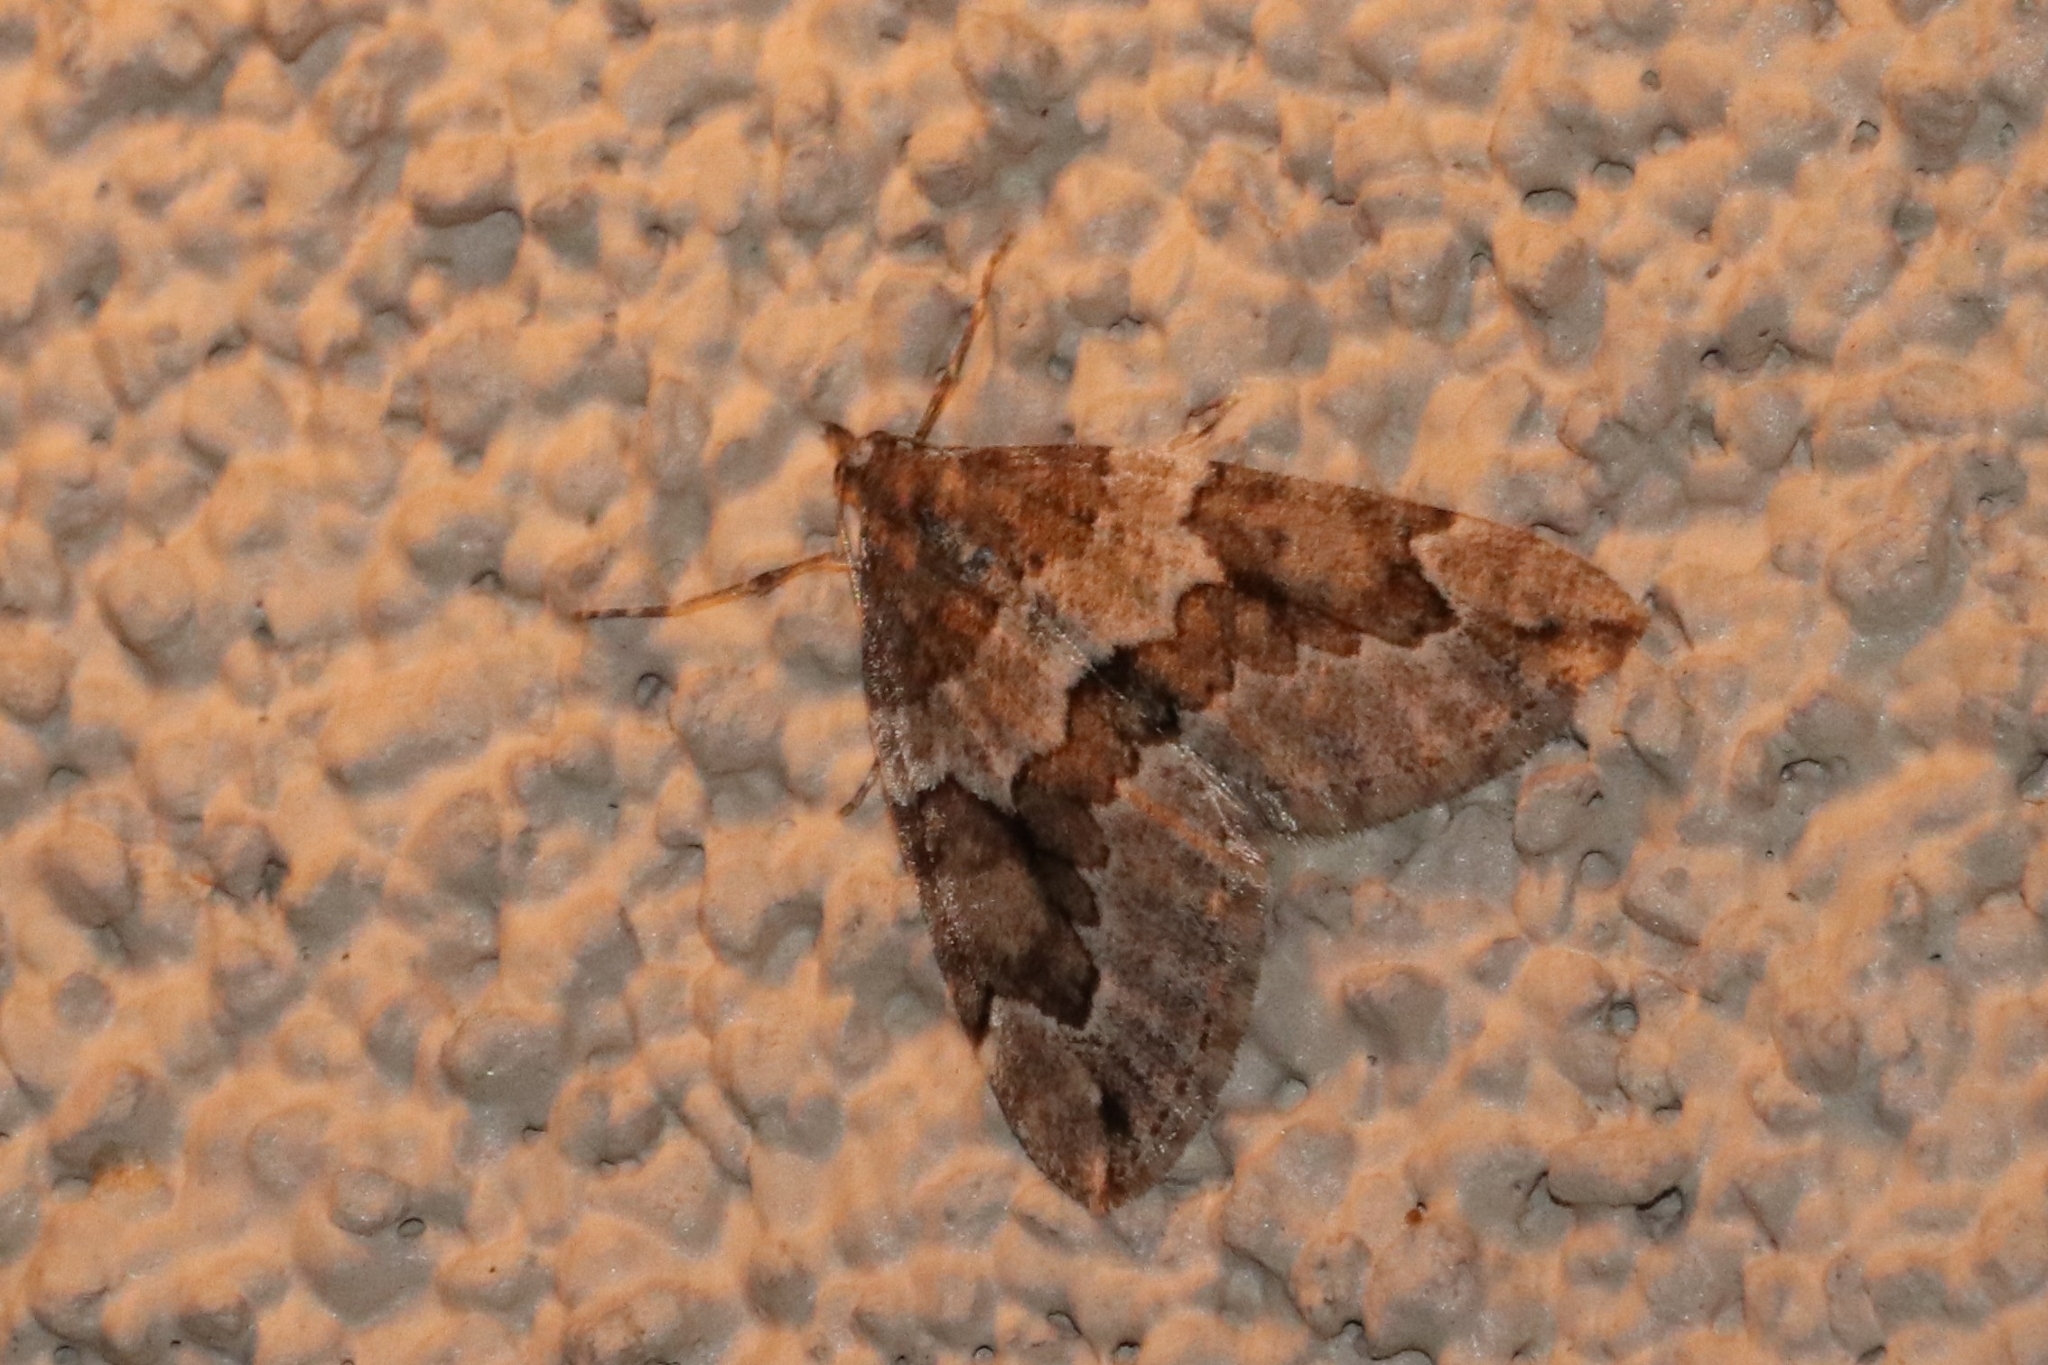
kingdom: Animalia
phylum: Arthropoda
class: Insecta
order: Lepidoptera
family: Geometridae
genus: Thera
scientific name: Thera juniperata
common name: Juniper carpet
